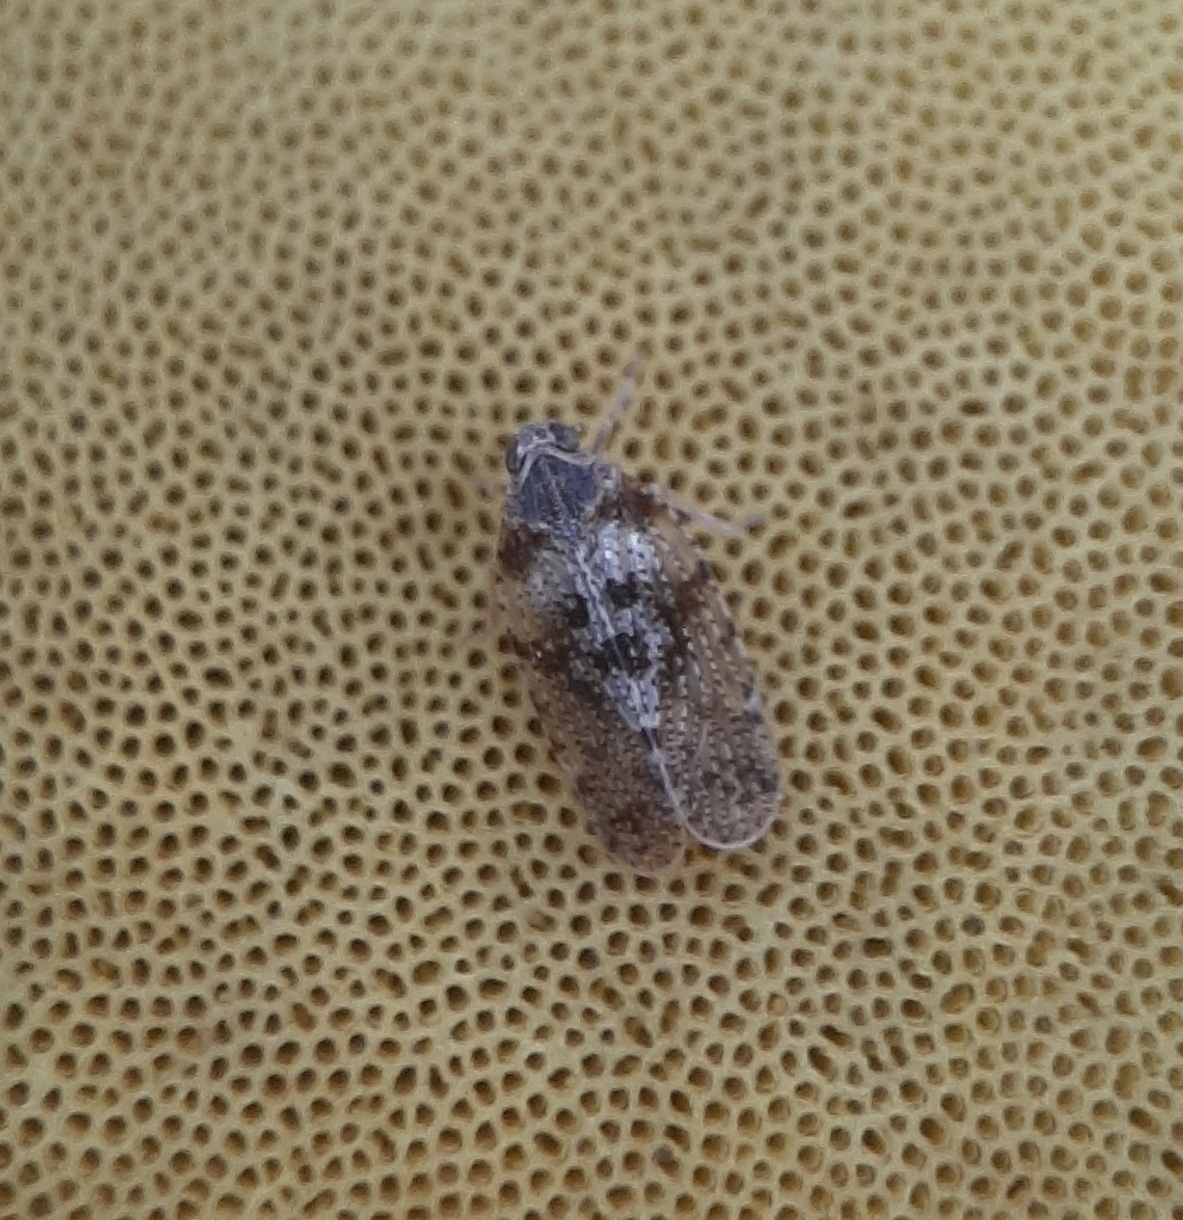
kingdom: Animalia
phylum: Arthropoda
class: Insecta
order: Hemiptera
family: Cixiidae
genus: Cixius
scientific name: Cixius pini
